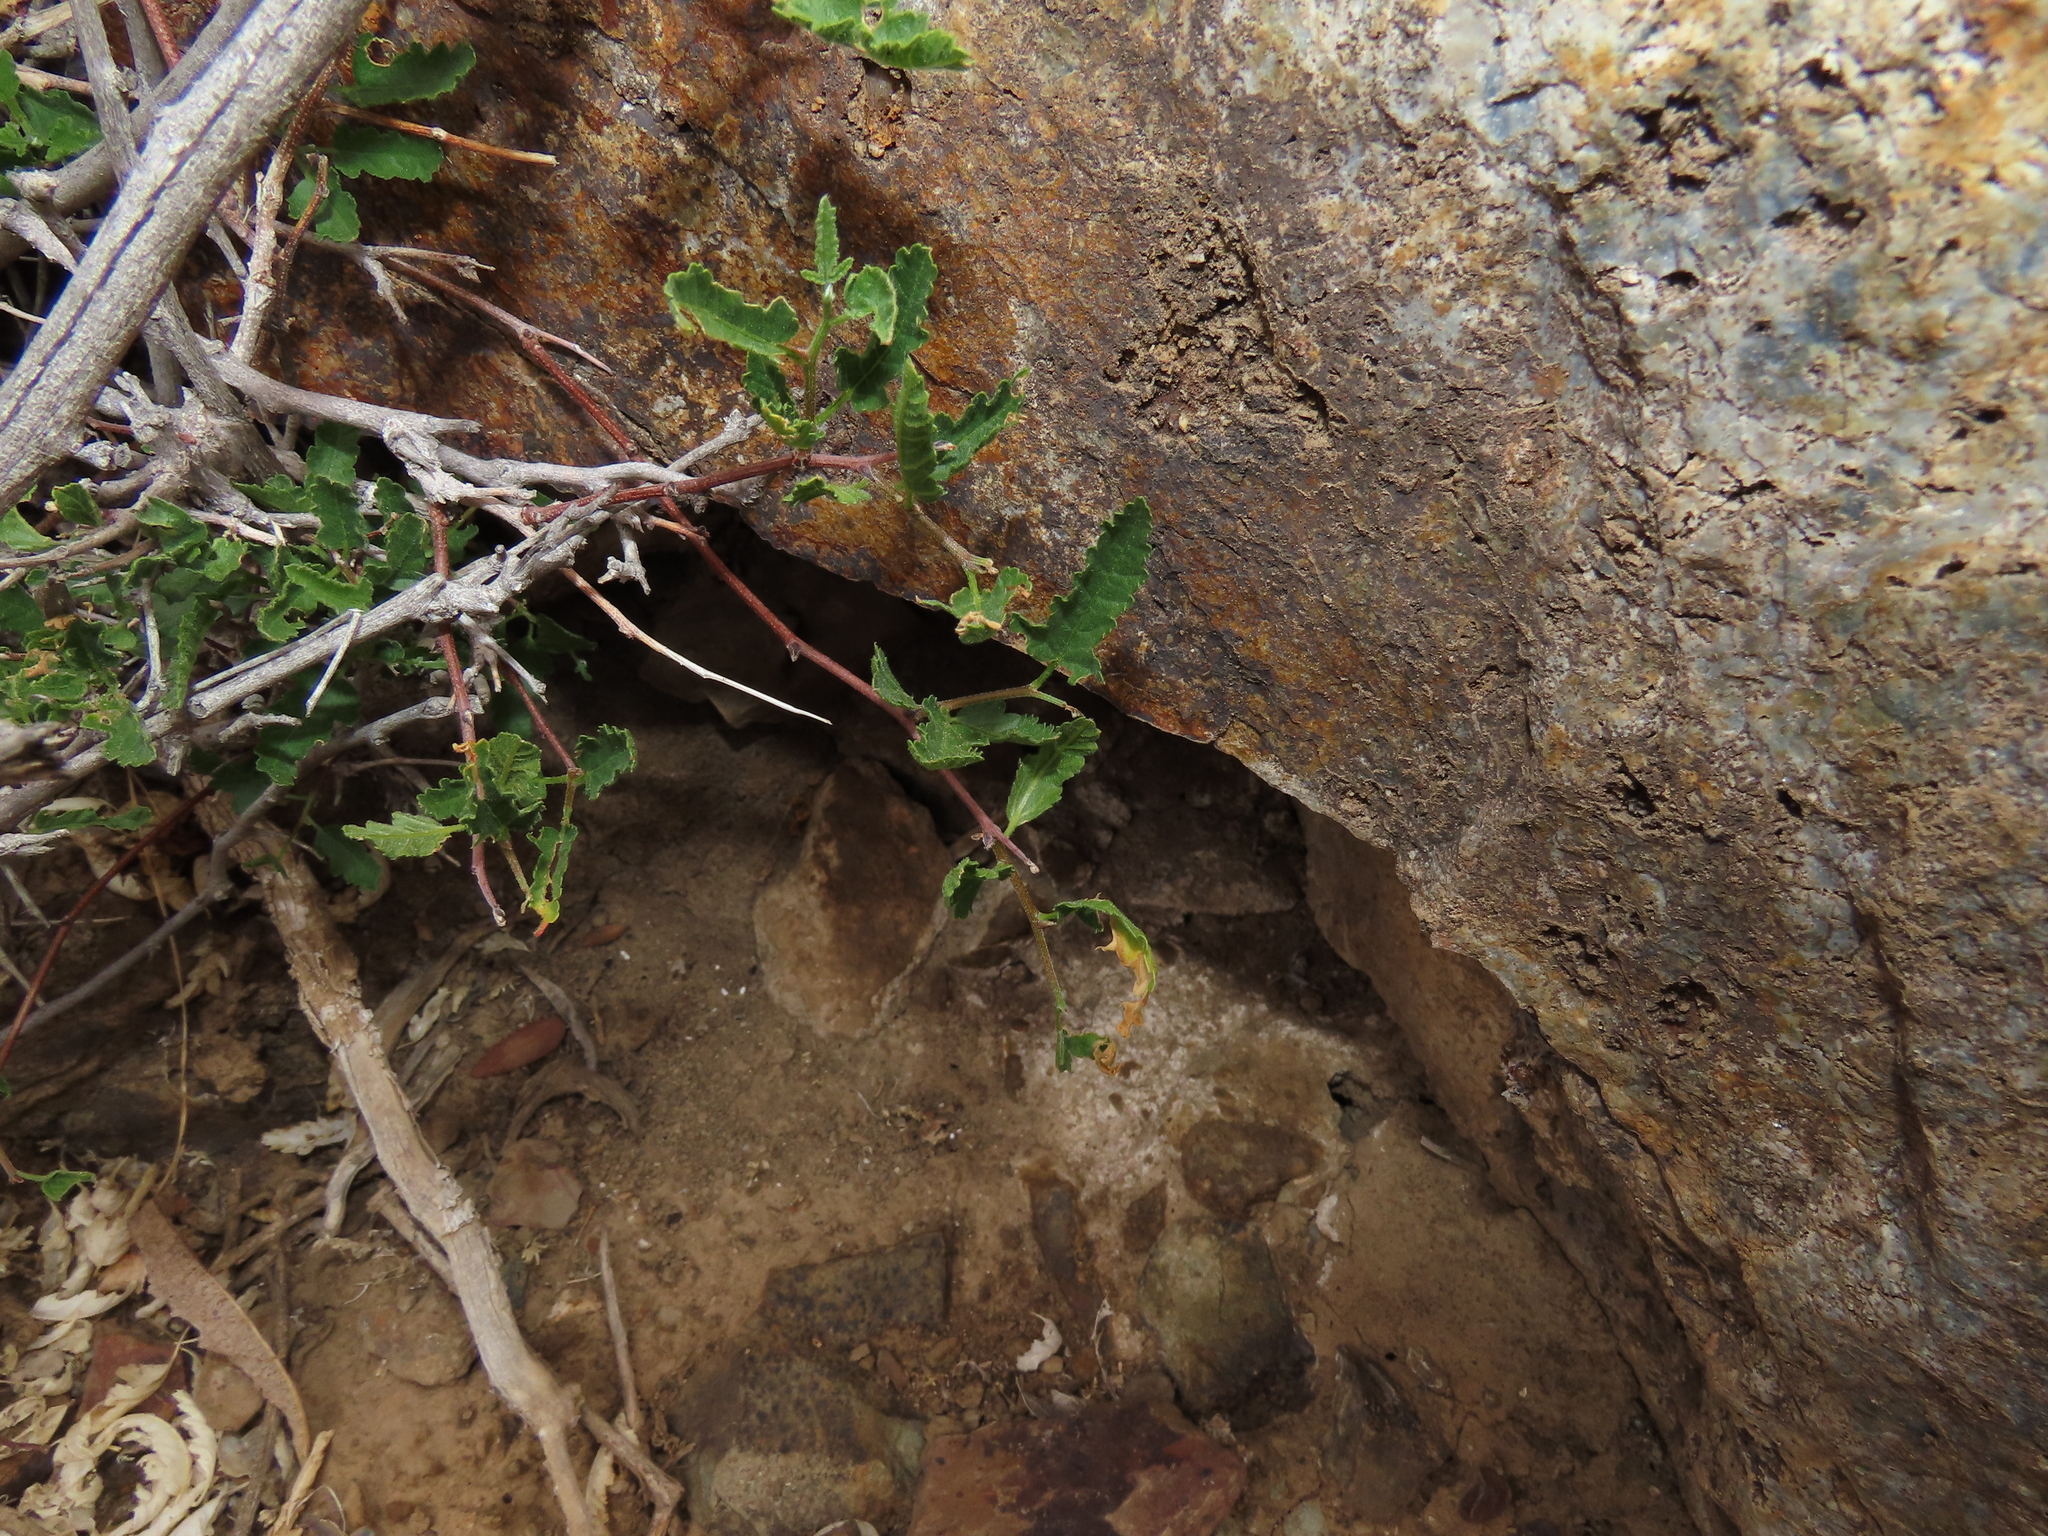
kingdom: Plantae
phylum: Tracheophyta
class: Magnoliopsida
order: Sapindales
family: Sapindaceae
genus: Bridgesia
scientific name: Bridgesia incisifolia
